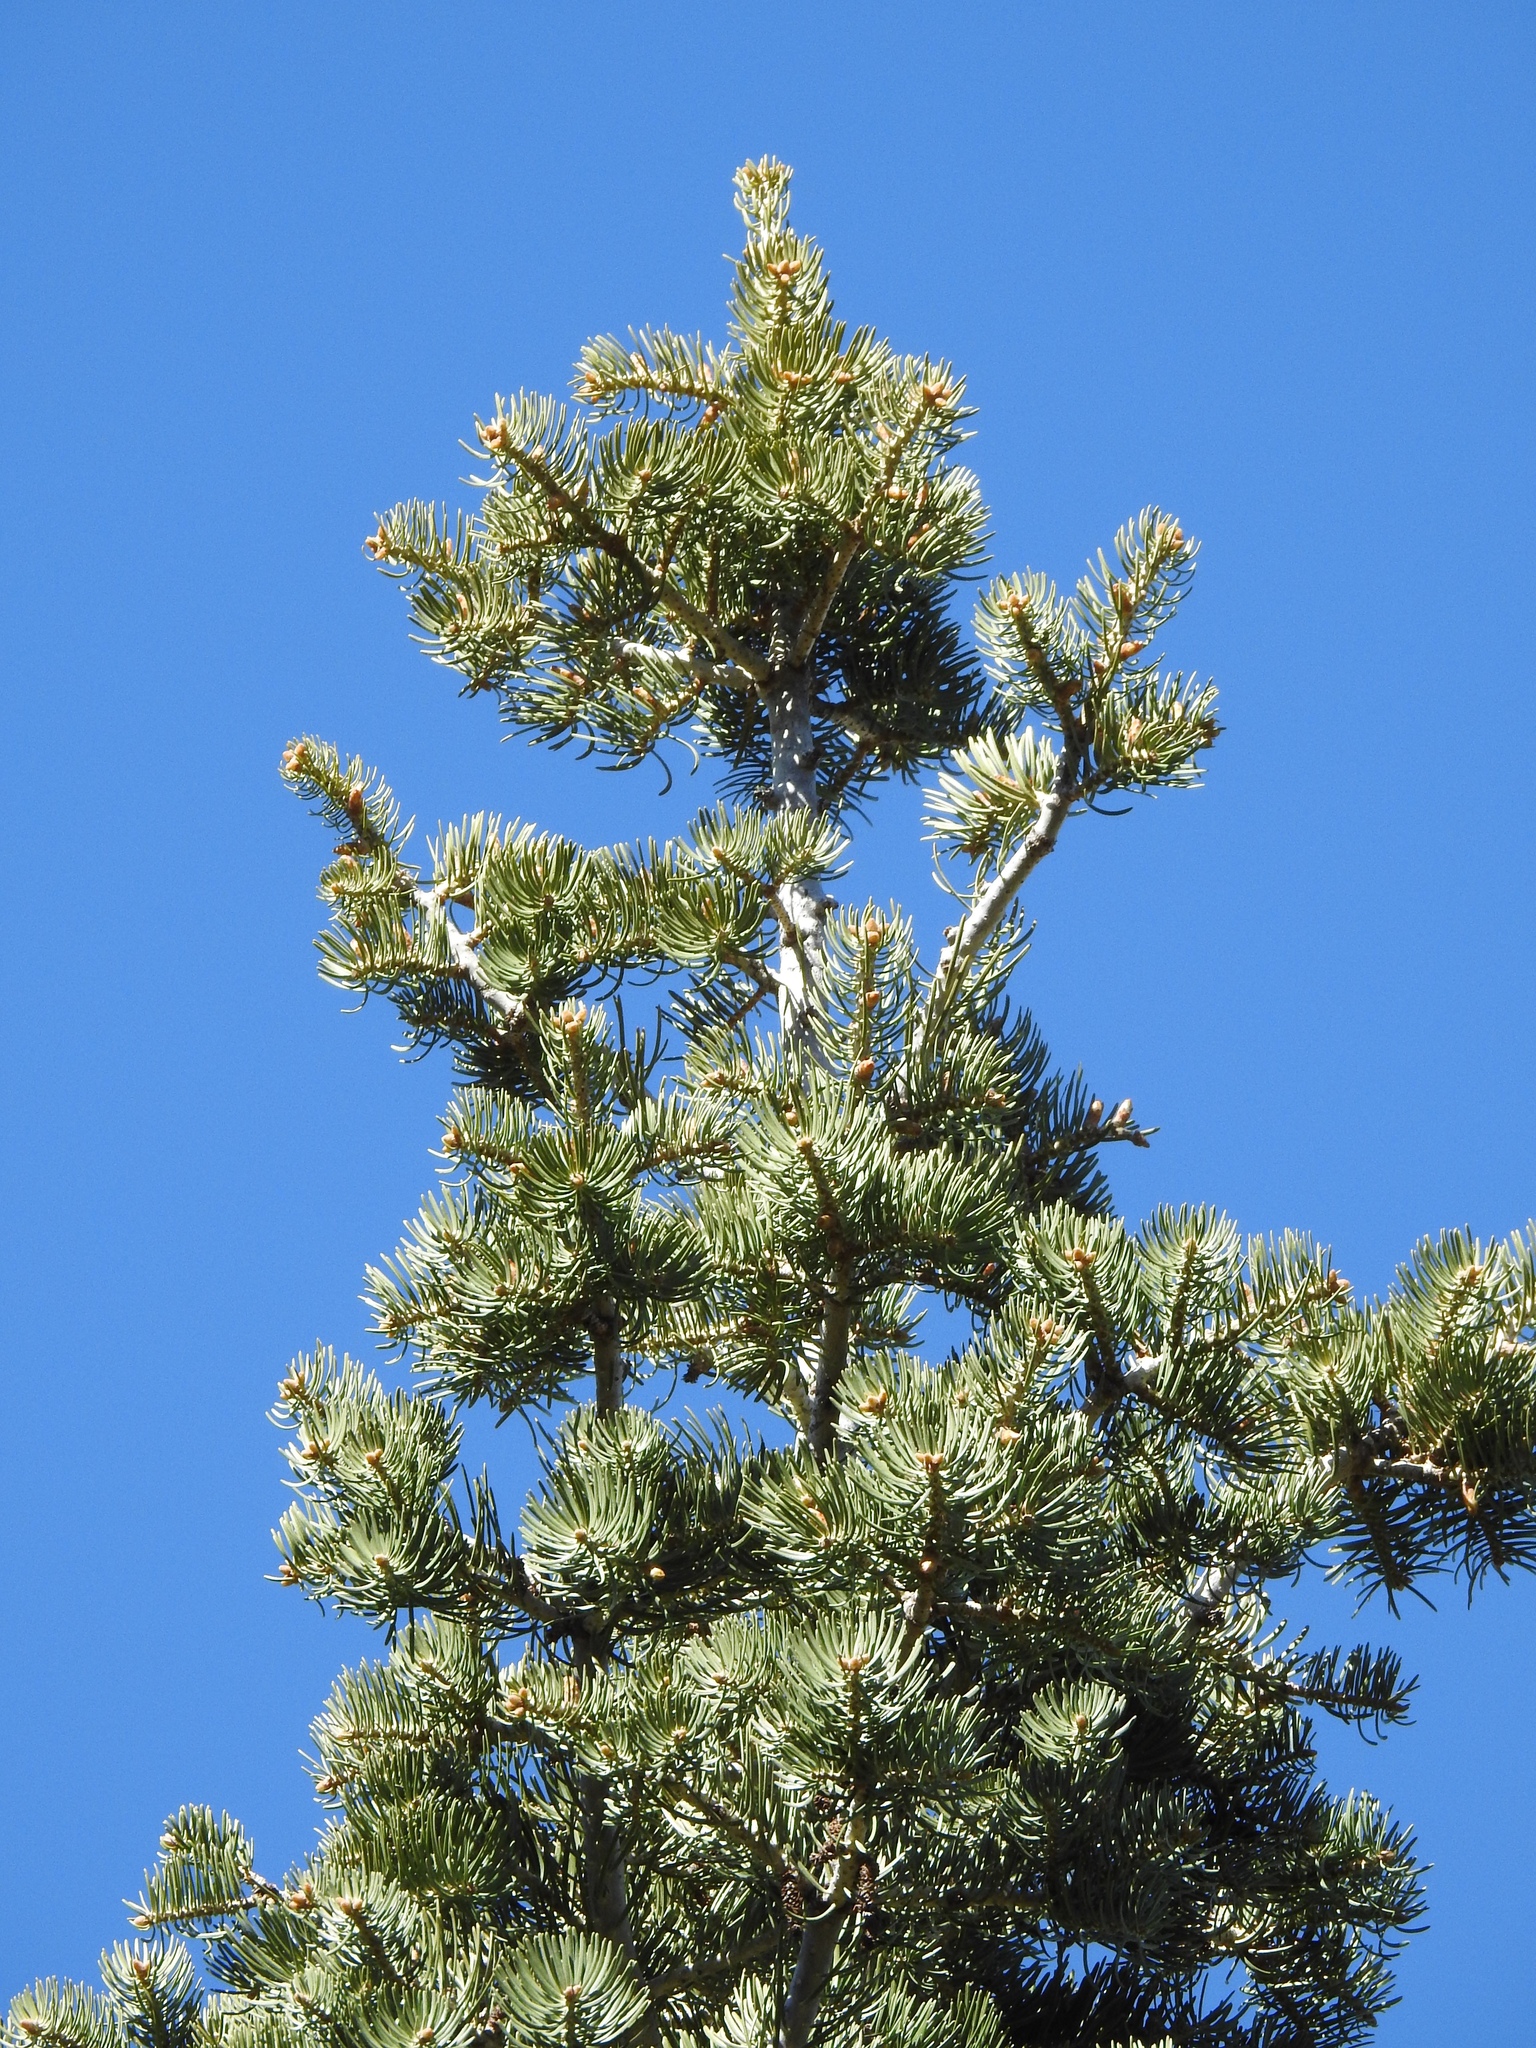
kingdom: Plantae
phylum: Tracheophyta
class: Pinopsida
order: Pinales
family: Pinaceae
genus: Abies
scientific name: Abies concolor
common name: Colorado fir
